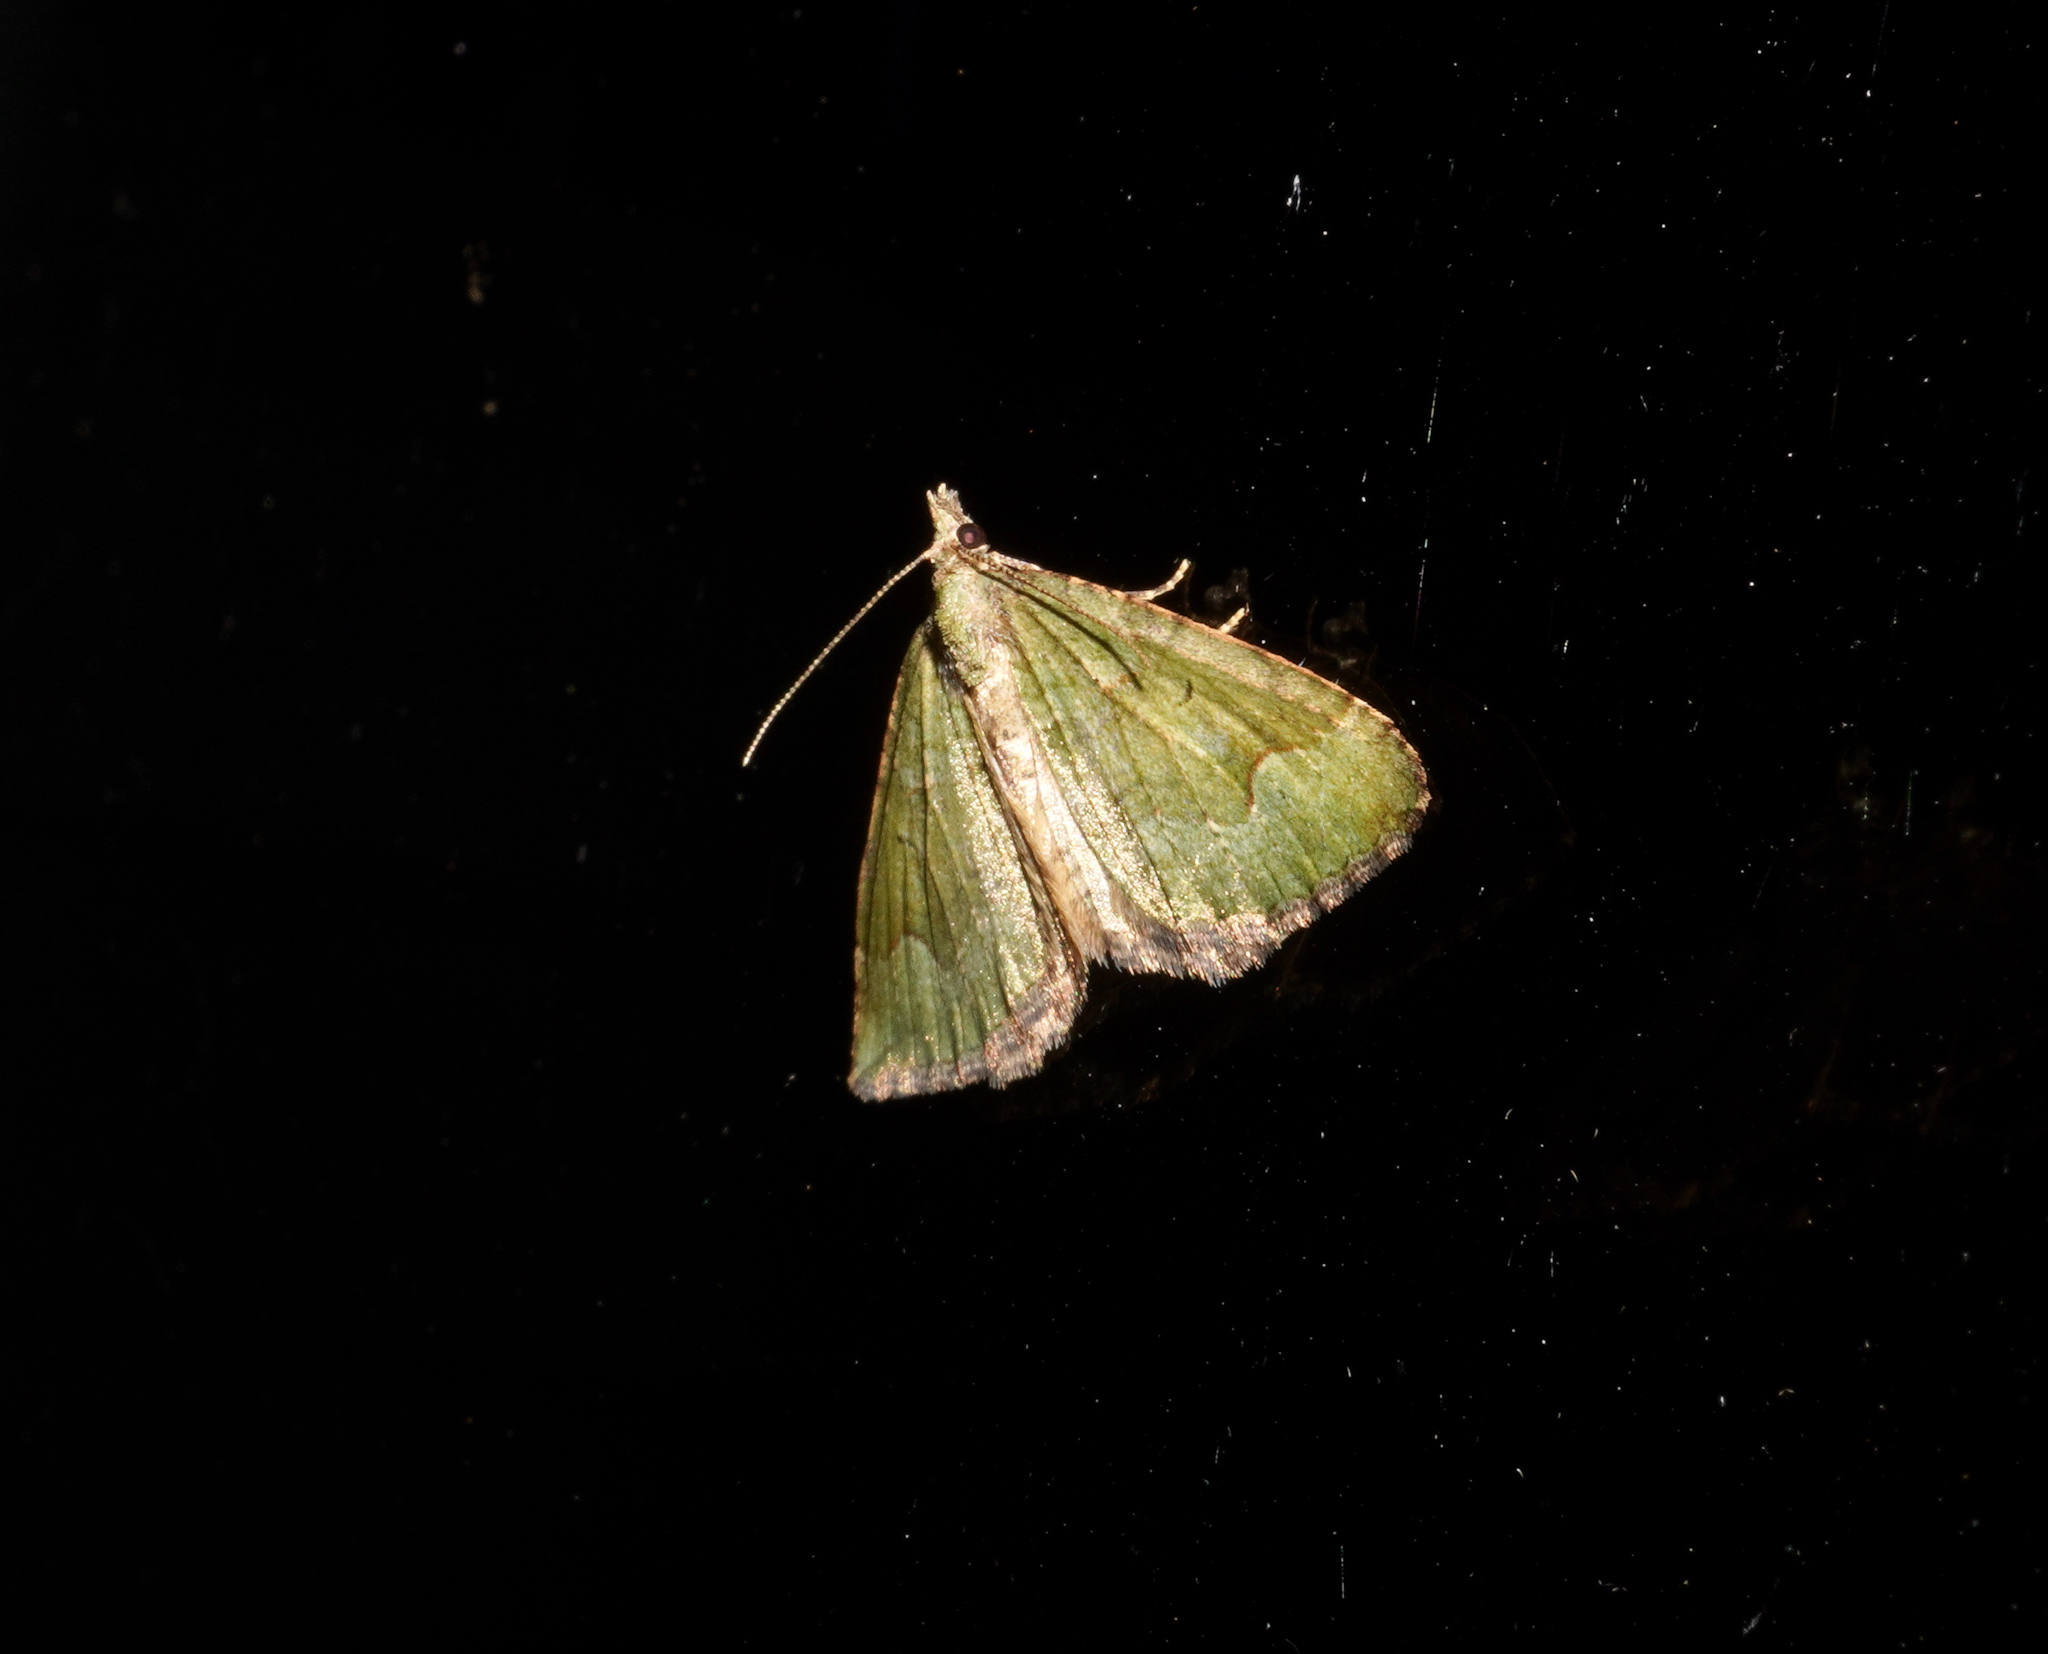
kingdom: Animalia
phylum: Arthropoda
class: Insecta
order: Lepidoptera
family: Geometridae
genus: Epyaxa
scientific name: Epyaxa rosearia
